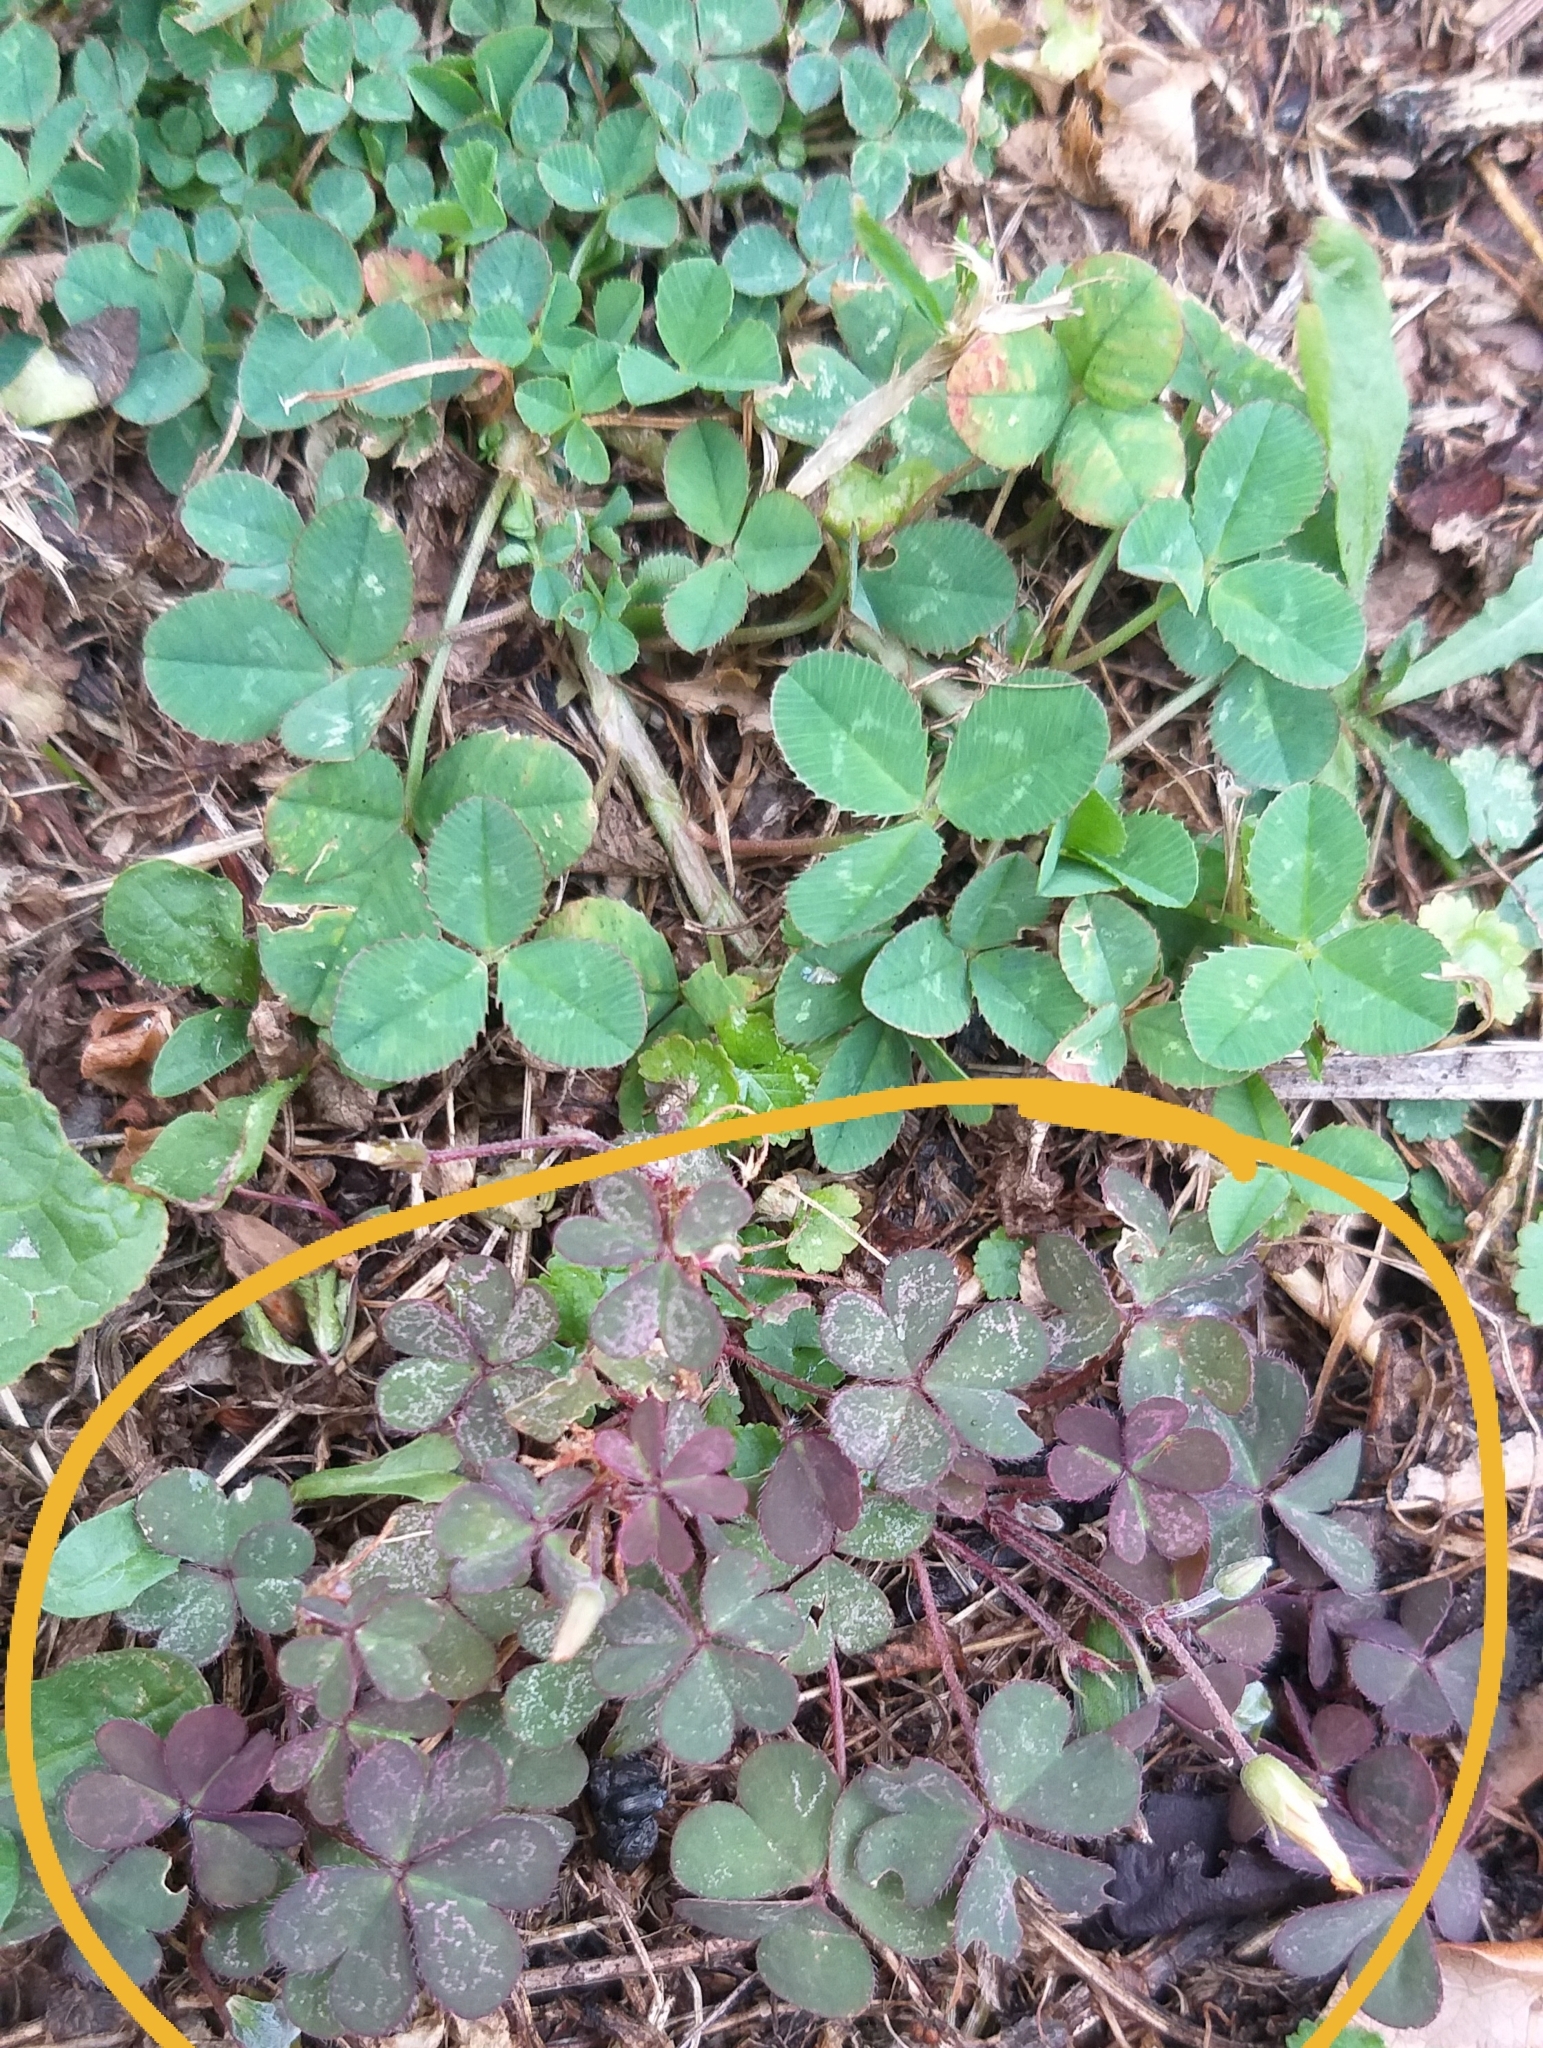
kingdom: Plantae
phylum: Tracheophyta
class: Magnoliopsida
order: Oxalidales
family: Oxalidaceae
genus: Oxalis
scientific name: Oxalis corniculata
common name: Procumbent yellow-sorrel
